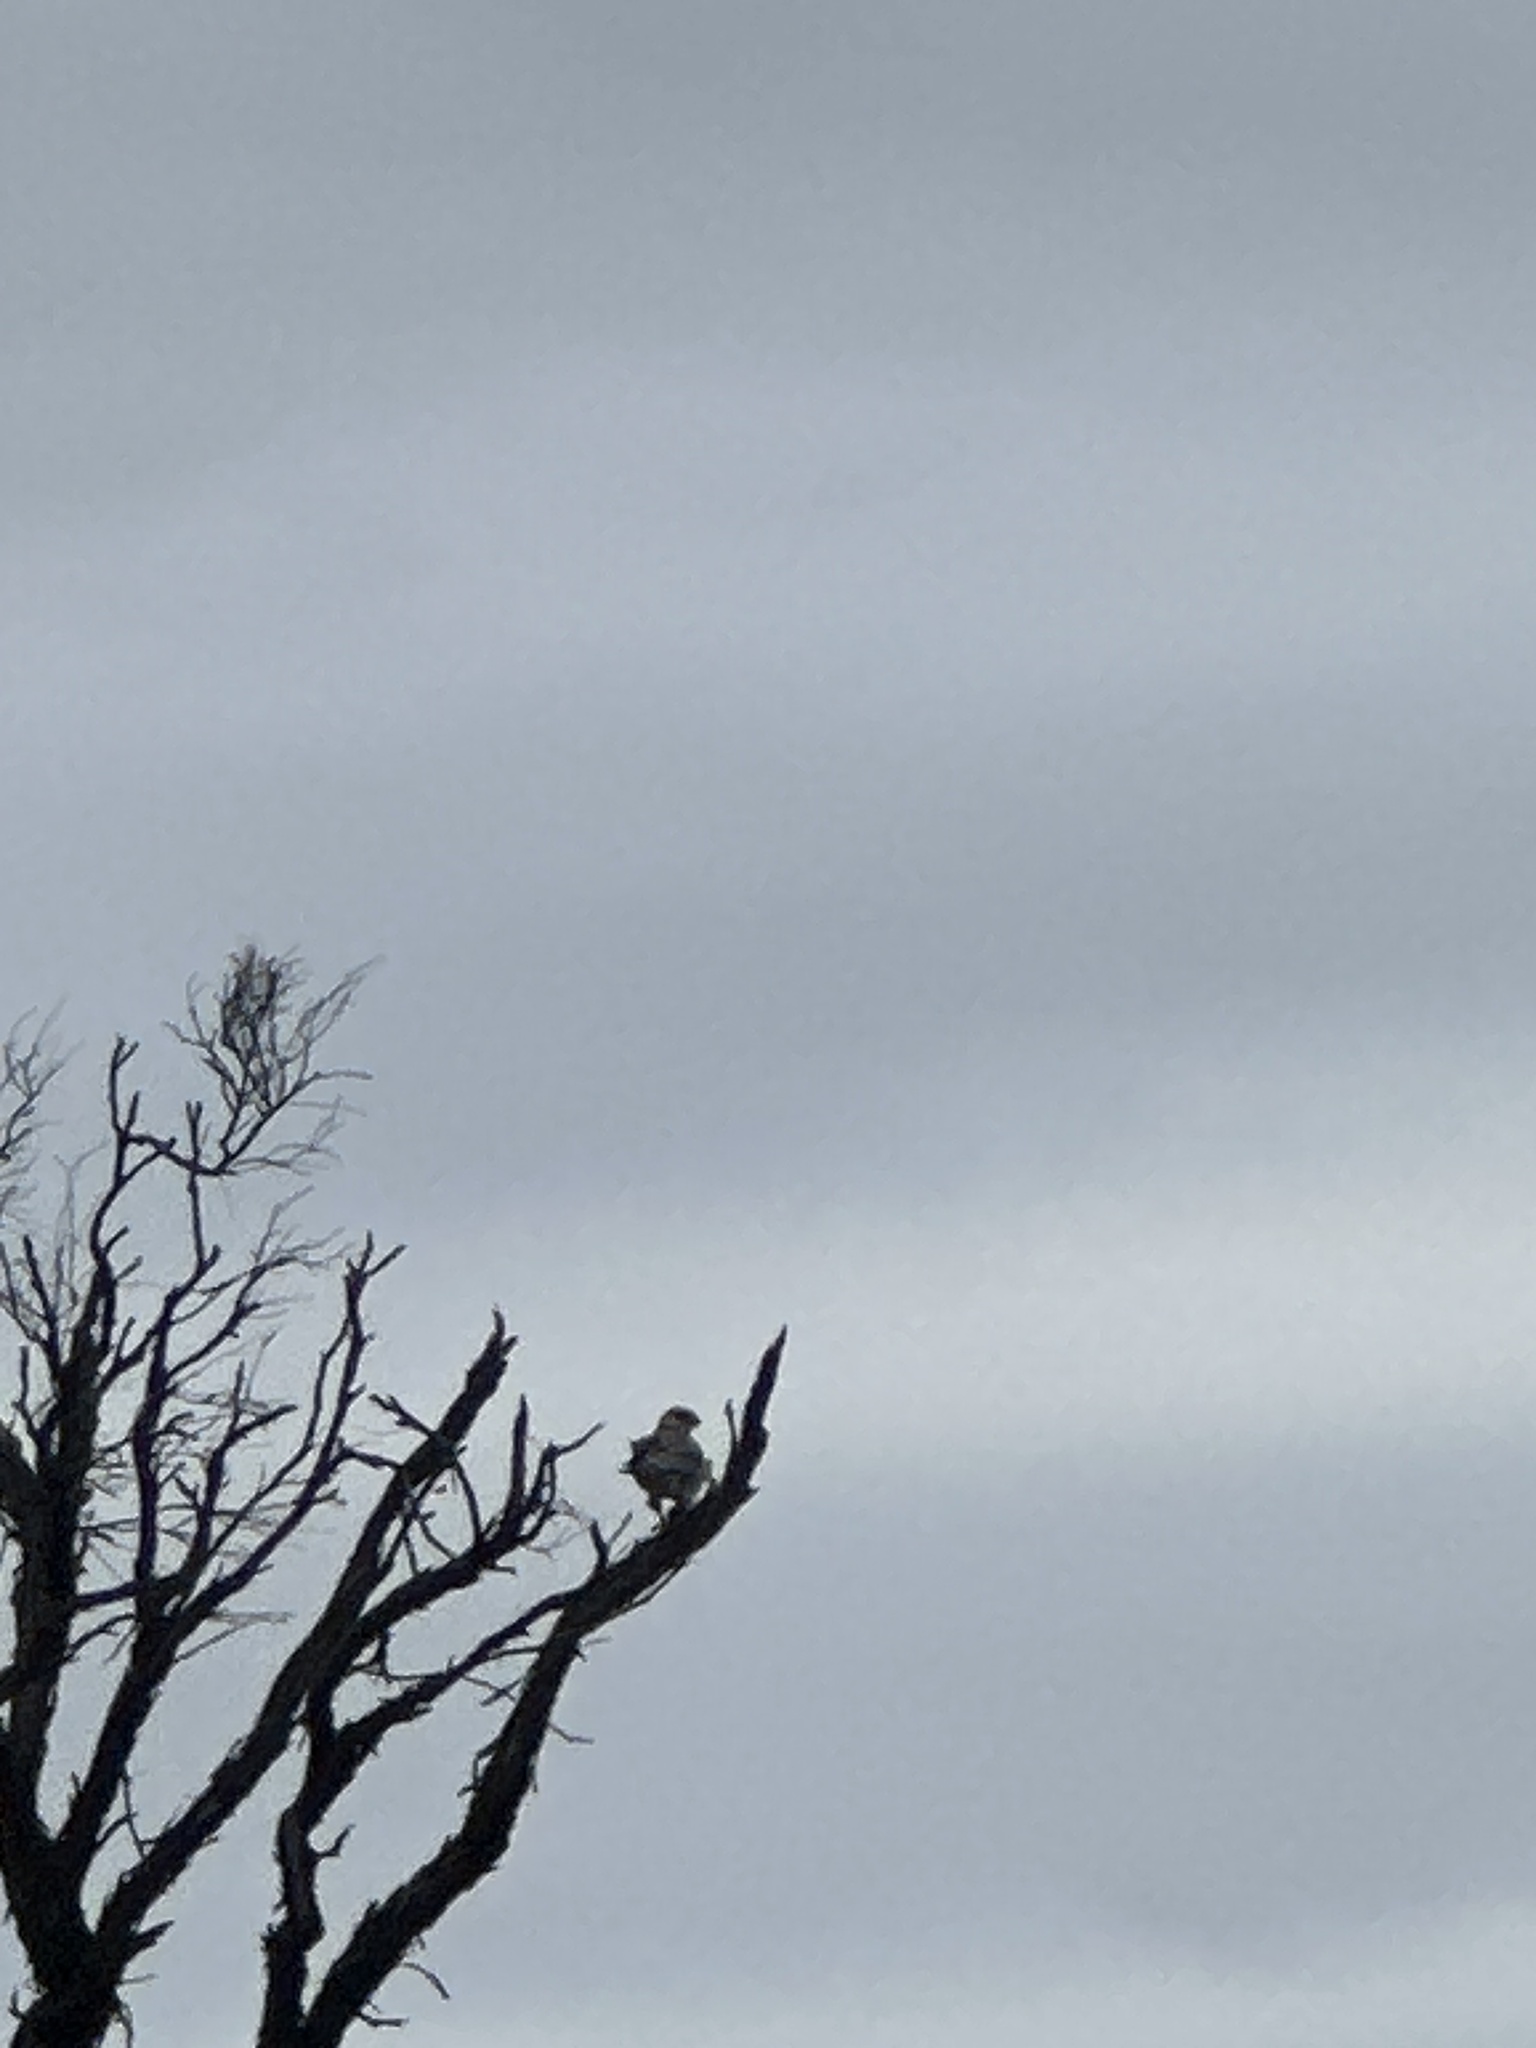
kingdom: Animalia
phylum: Chordata
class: Aves
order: Accipitriformes
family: Accipitridae
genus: Elanus
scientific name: Elanus axillaris
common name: Black-shouldered kite
